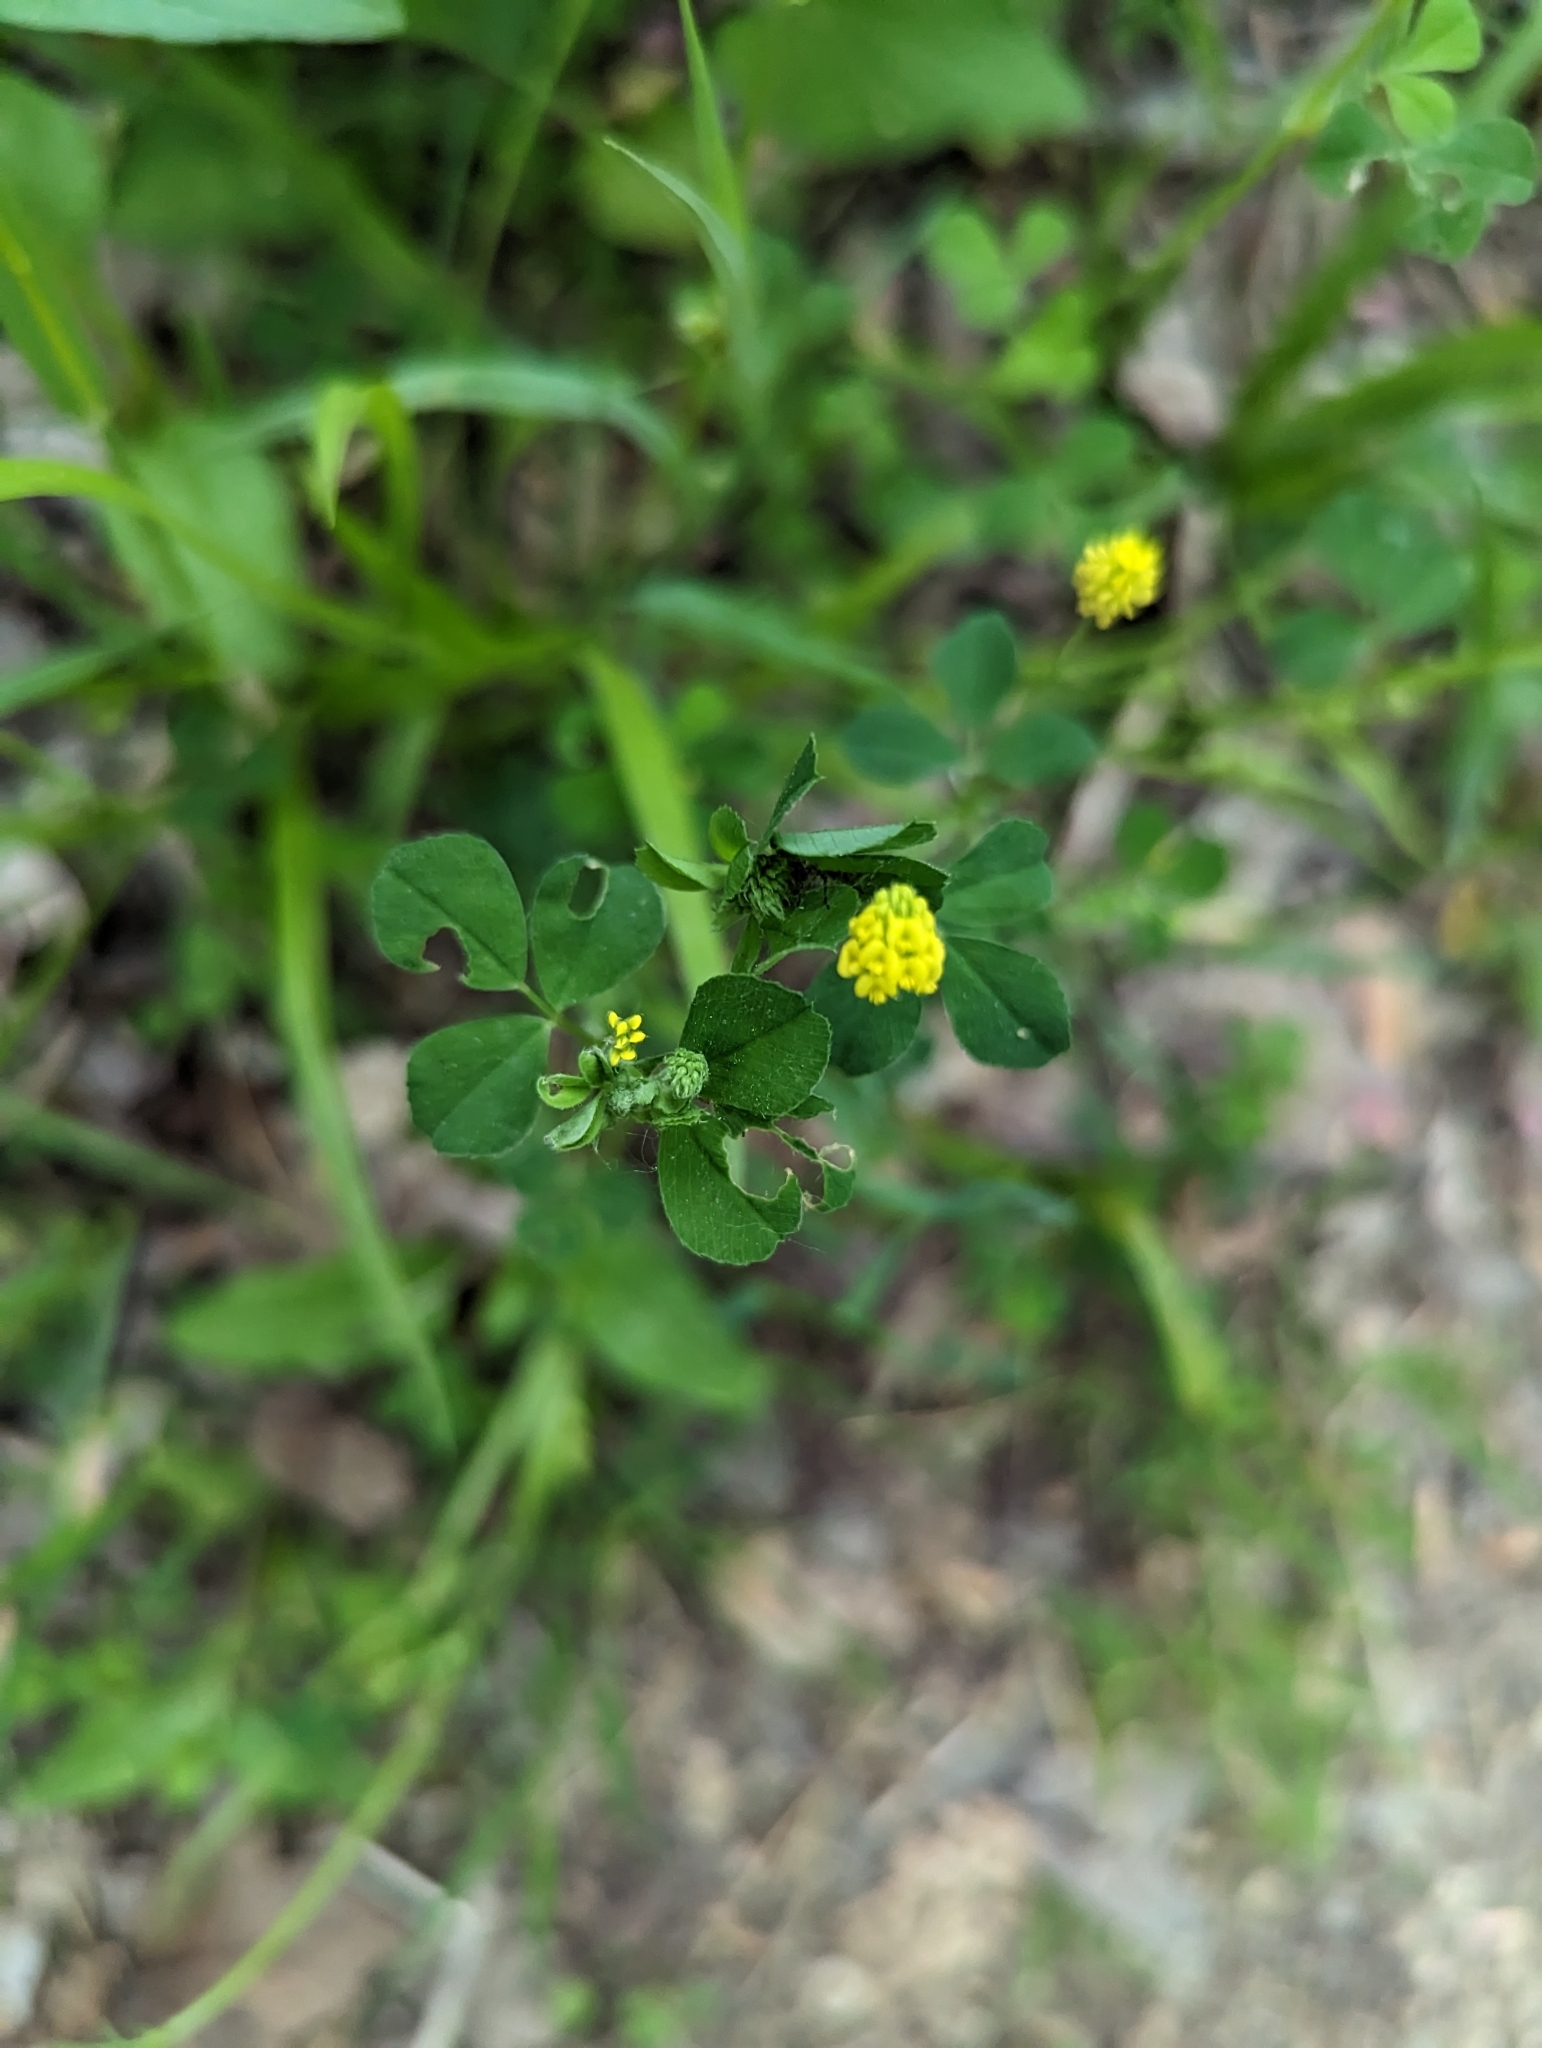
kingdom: Plantae
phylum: Tracheophyta
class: Magnoliopsida
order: Fabales
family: Fabaceae
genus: Medicago
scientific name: Medicago lupulina
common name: Black medick
